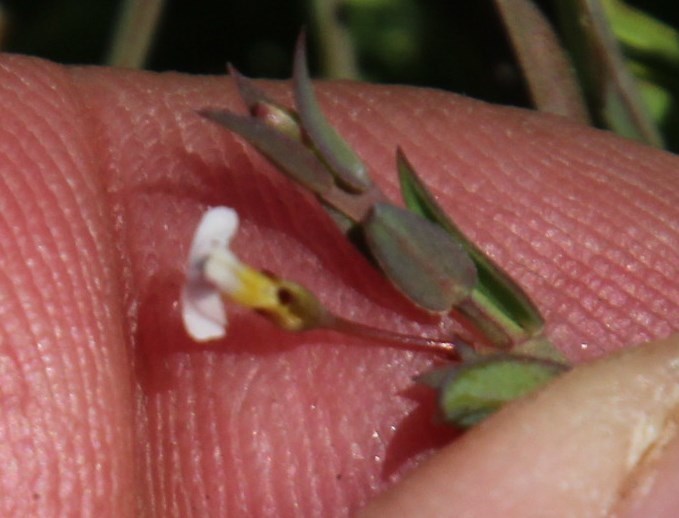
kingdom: Plantae
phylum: Tracheophyta
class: Magnoliopsida
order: Fabales
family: Polygalaceae
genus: Muraltia
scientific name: Muraltia trinervia
